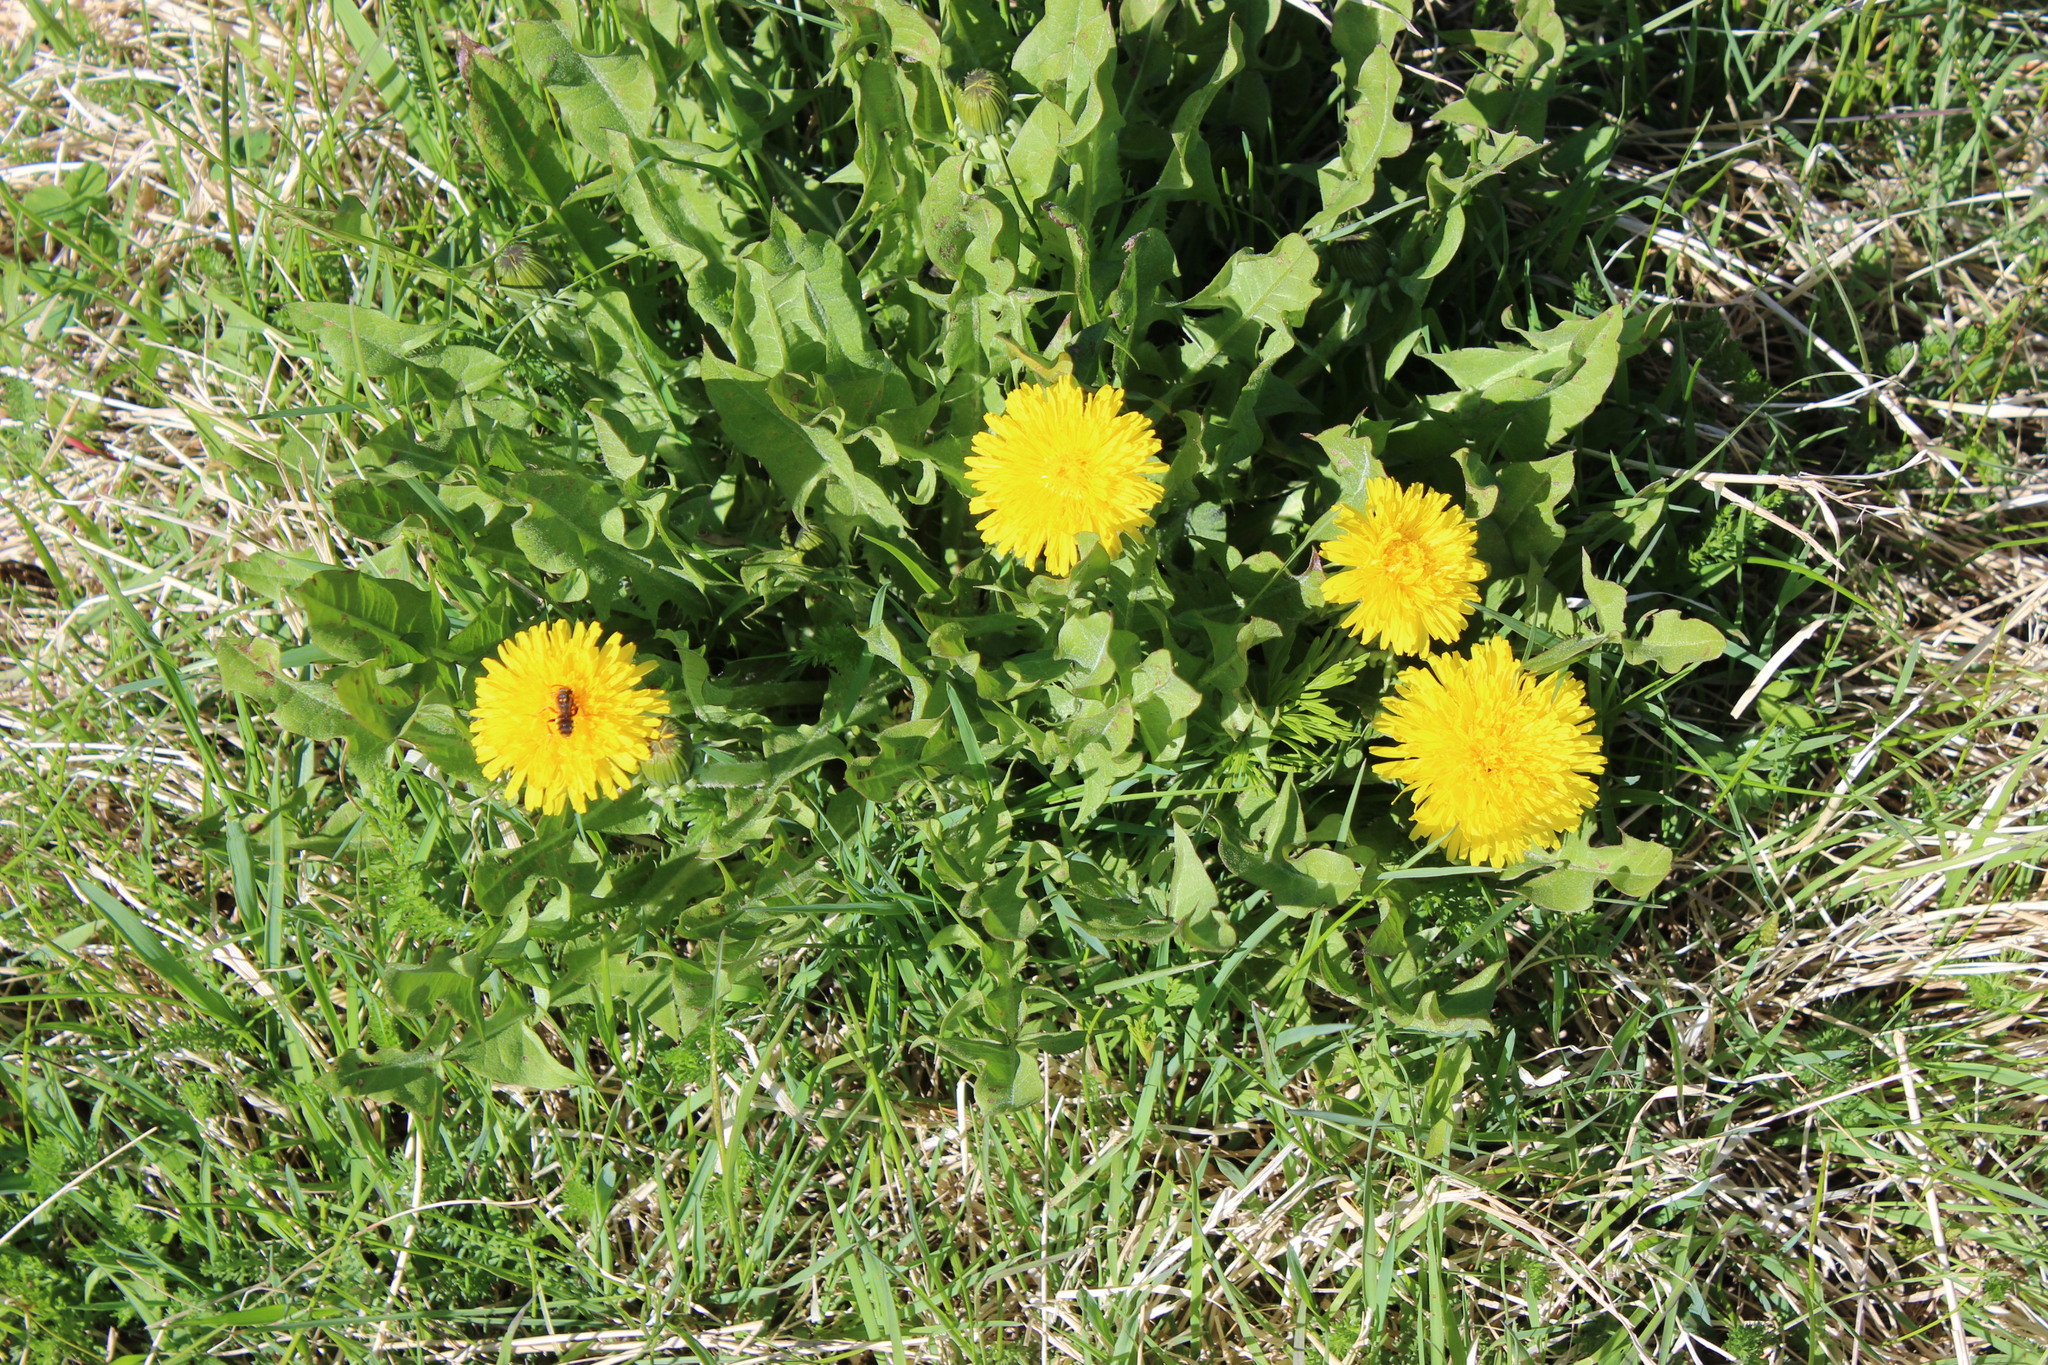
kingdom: Plantae
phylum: Tracheophyta
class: Magnoliopsida
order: Asterales
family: Asteraceae
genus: Taraxacum
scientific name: Taraxacum officinale
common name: Common dandelion
